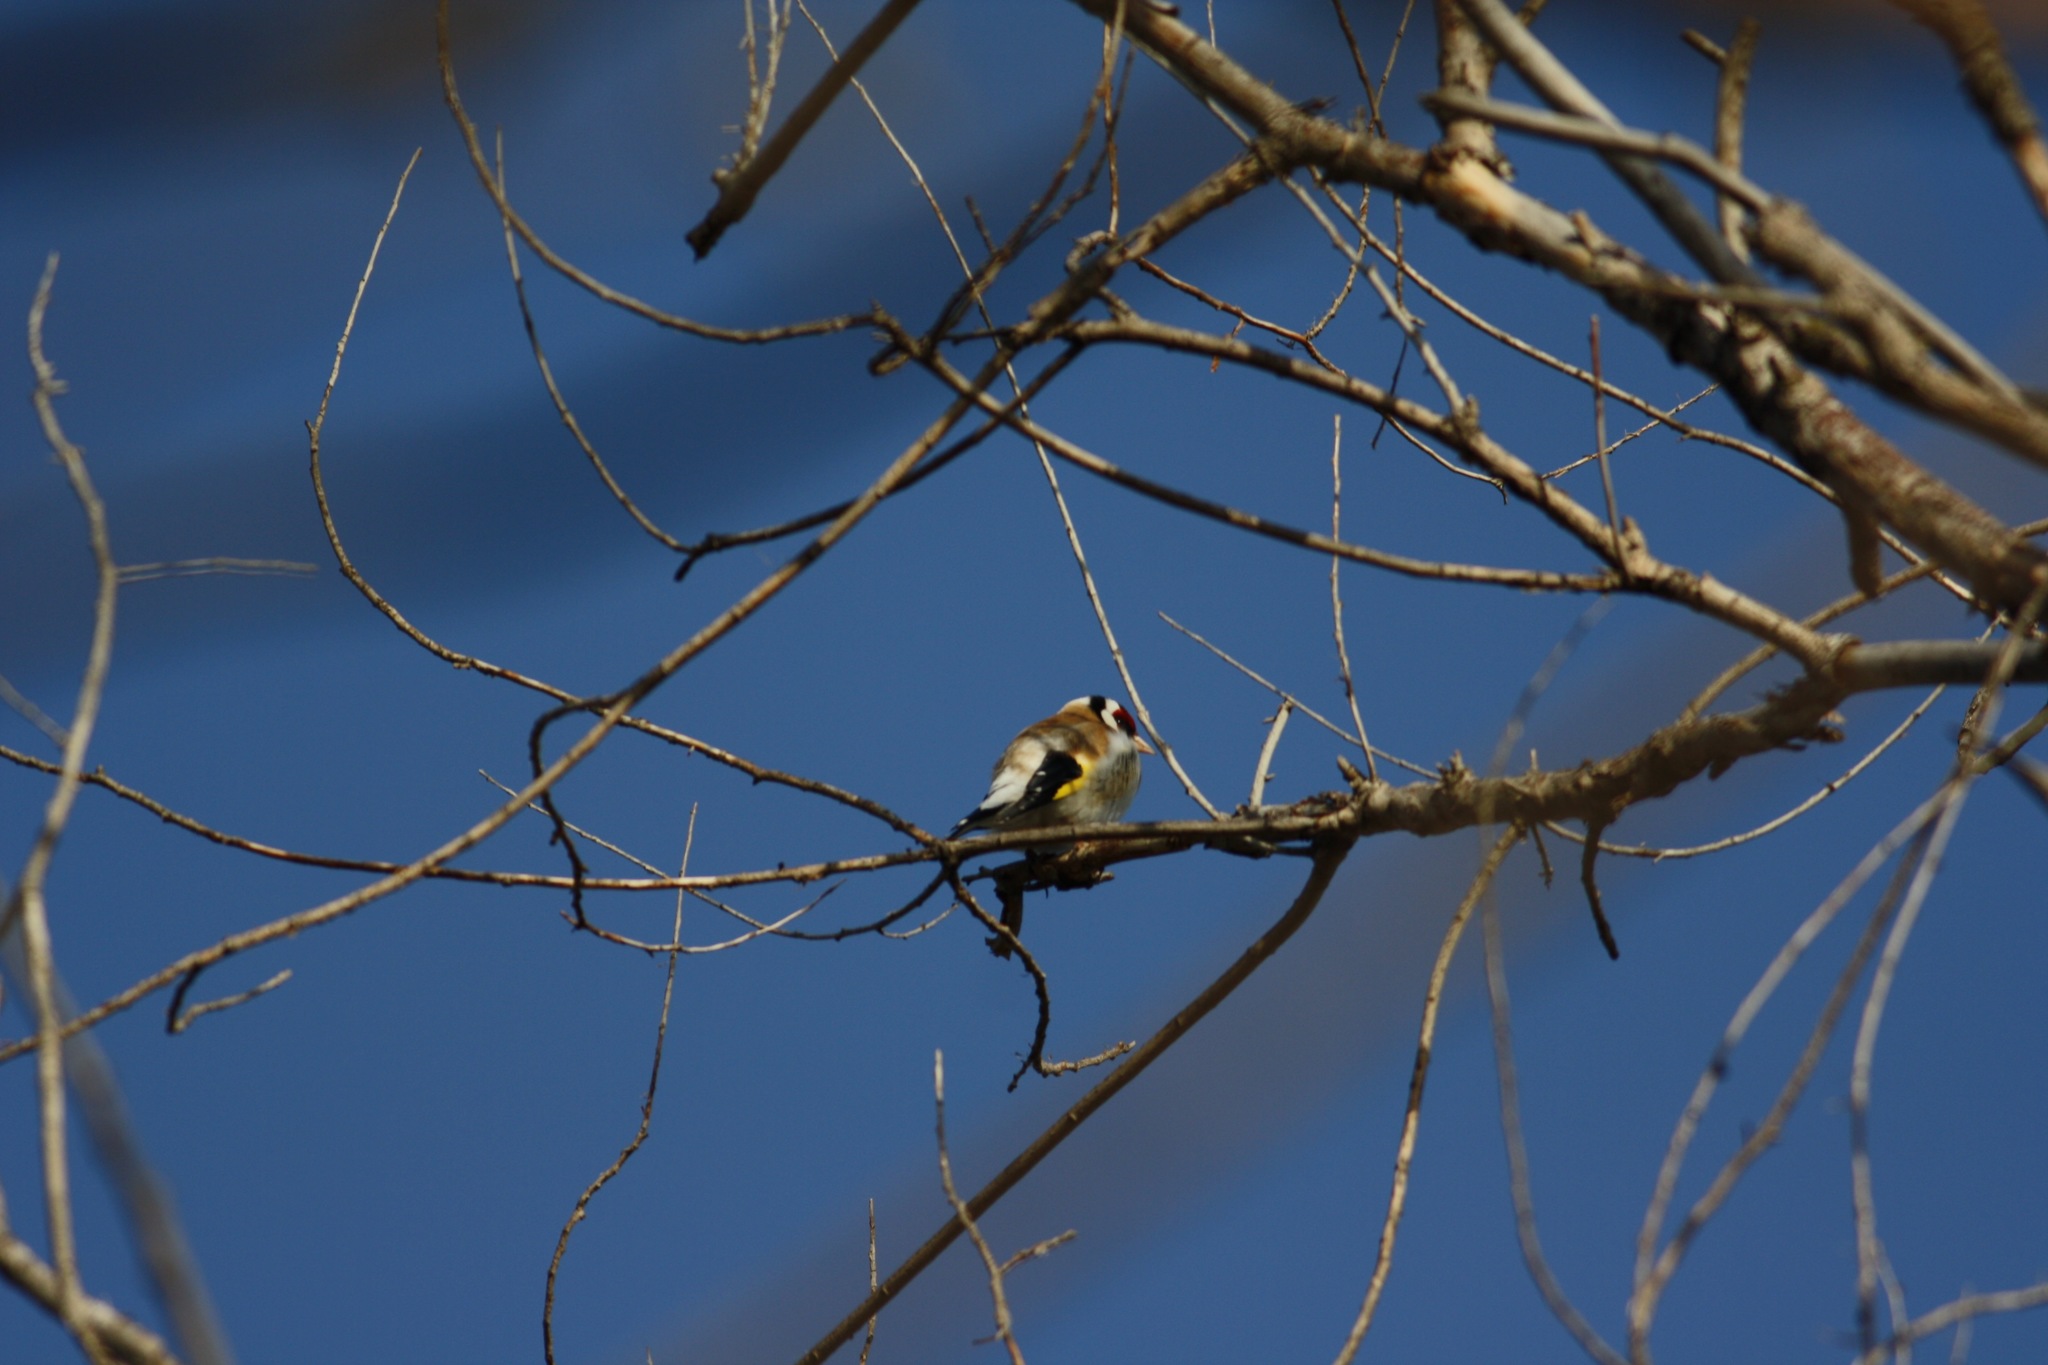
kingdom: Animalia
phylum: Chordata
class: Aves
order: Passeriformes
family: Fringillidae
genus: Carduelis
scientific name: Carduelis carduelis
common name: European goldfinch
